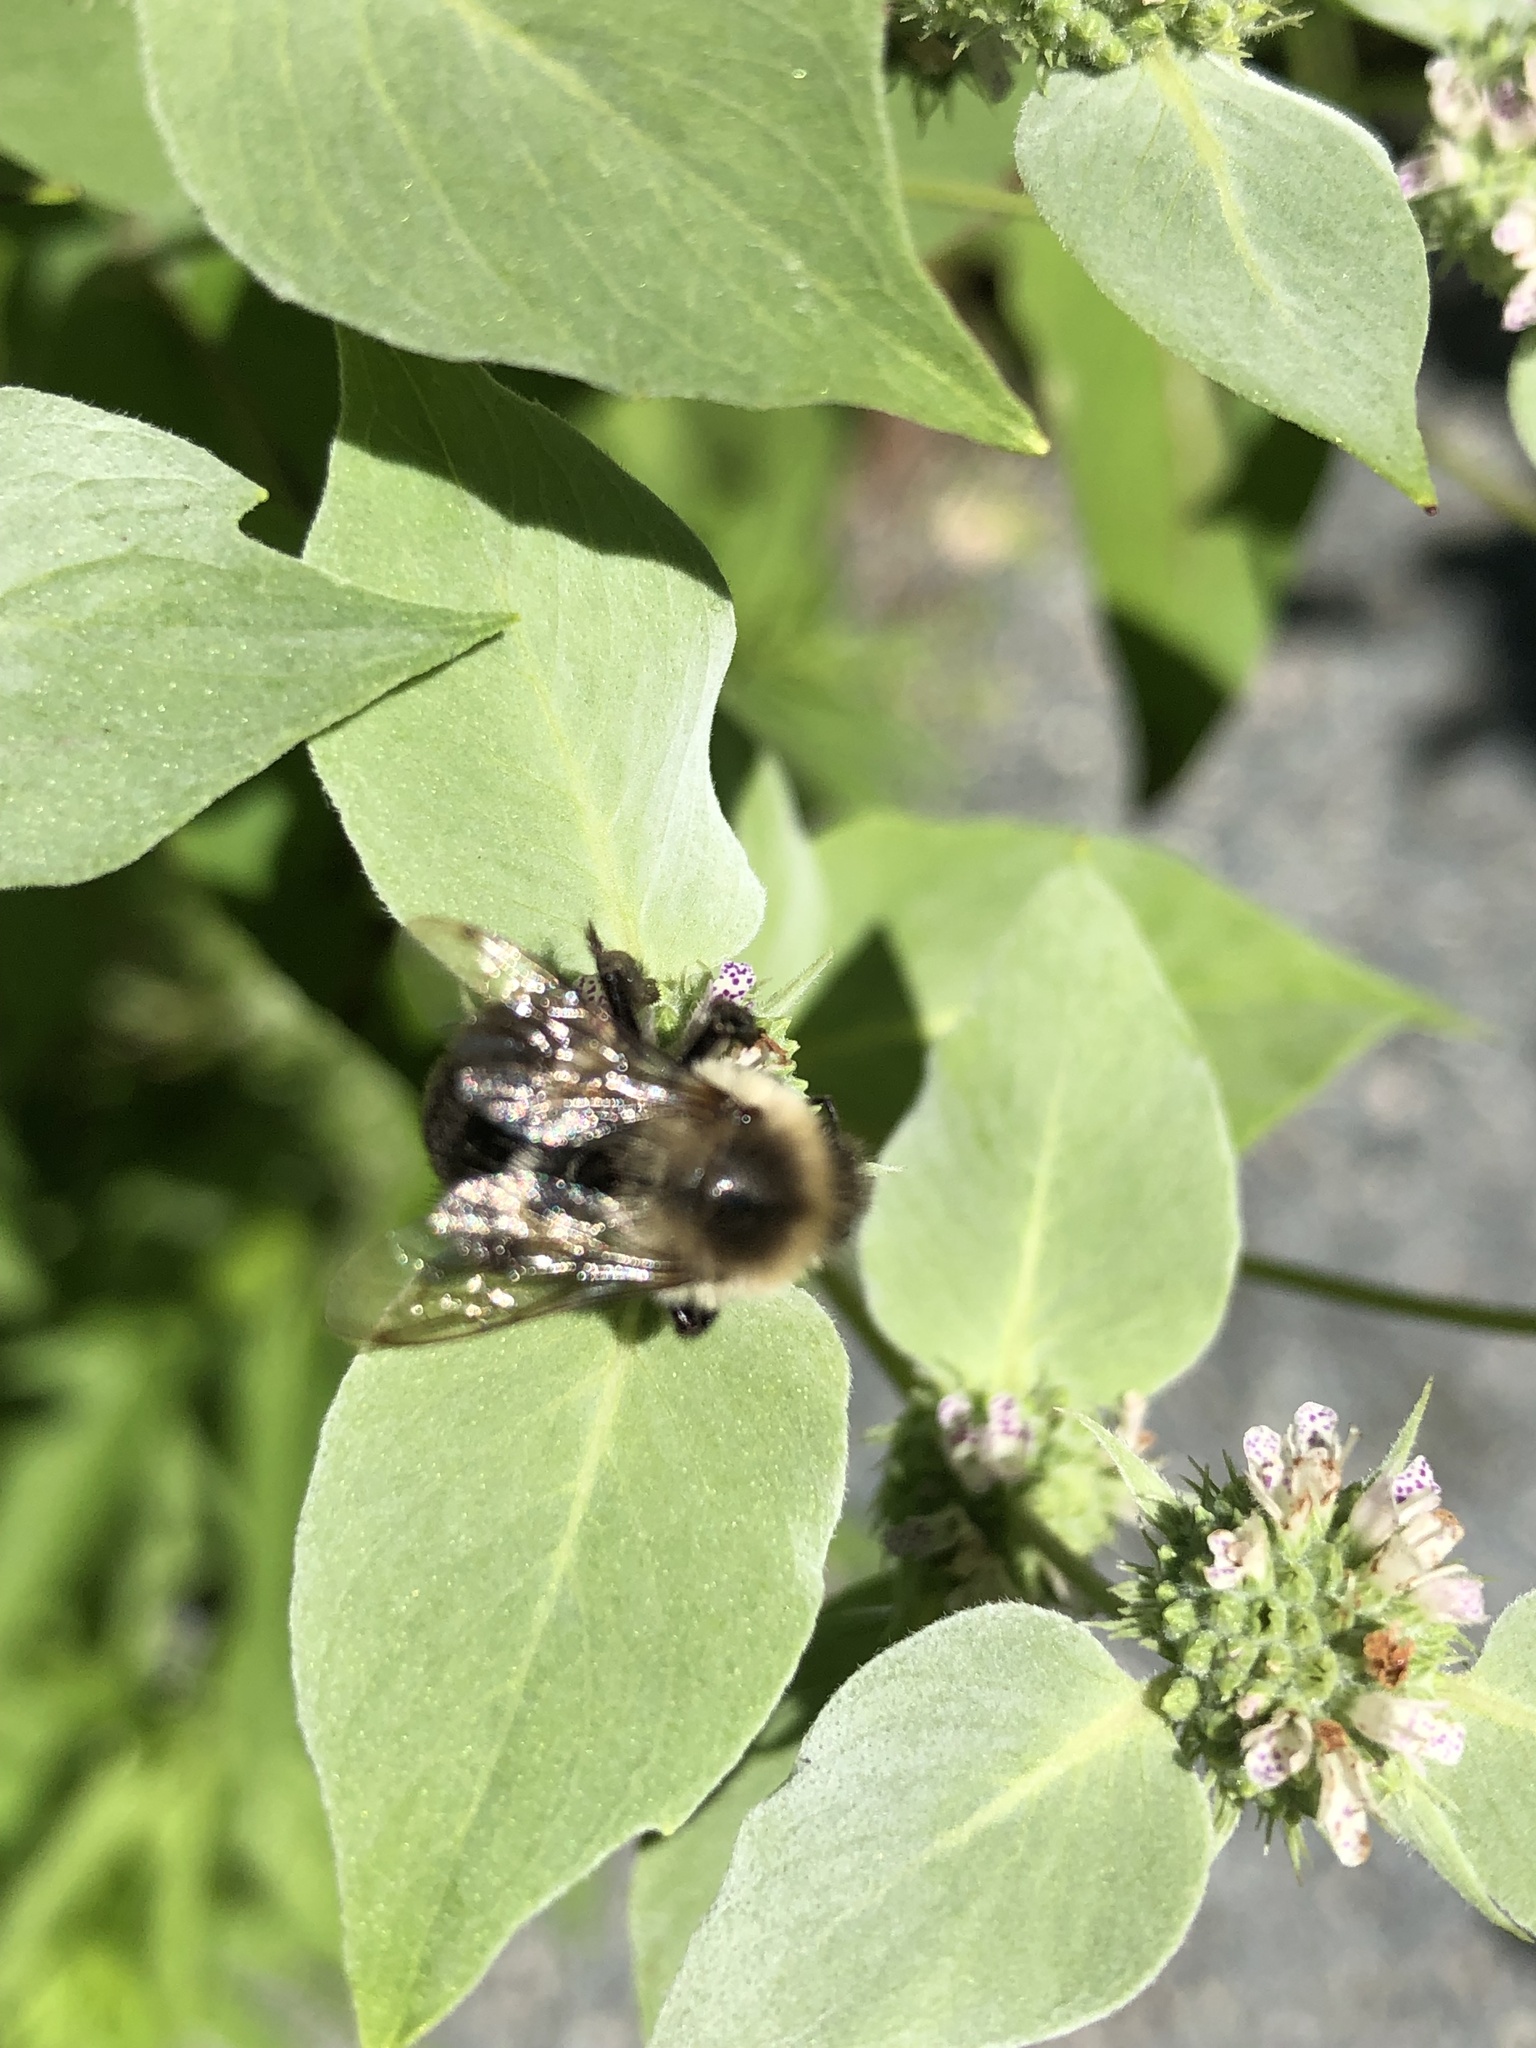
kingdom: Animalia
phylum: Arthropoda
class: Insecta
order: Hymenoptera
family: Apidae
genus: Bombus
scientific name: Bombus impatiens
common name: Common eastern bumble bee
